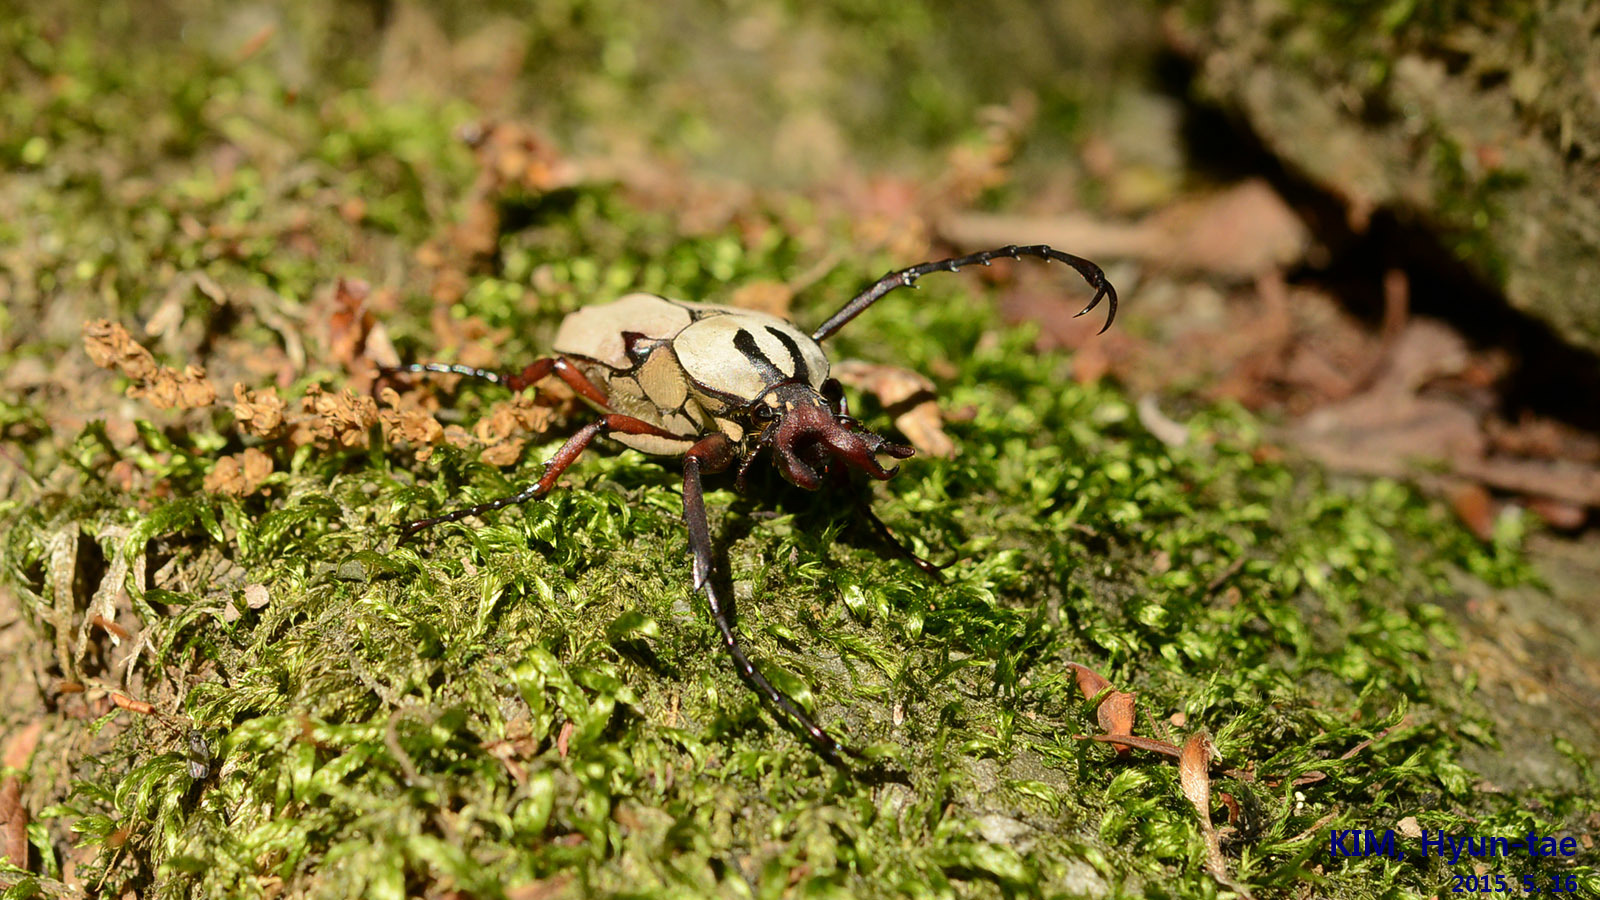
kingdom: Animalia
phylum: Arthropoda
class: Insecta
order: Coleoptera
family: Scarabaeidae
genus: Dicronocephalus
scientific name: Dicronocephalus adamsi
